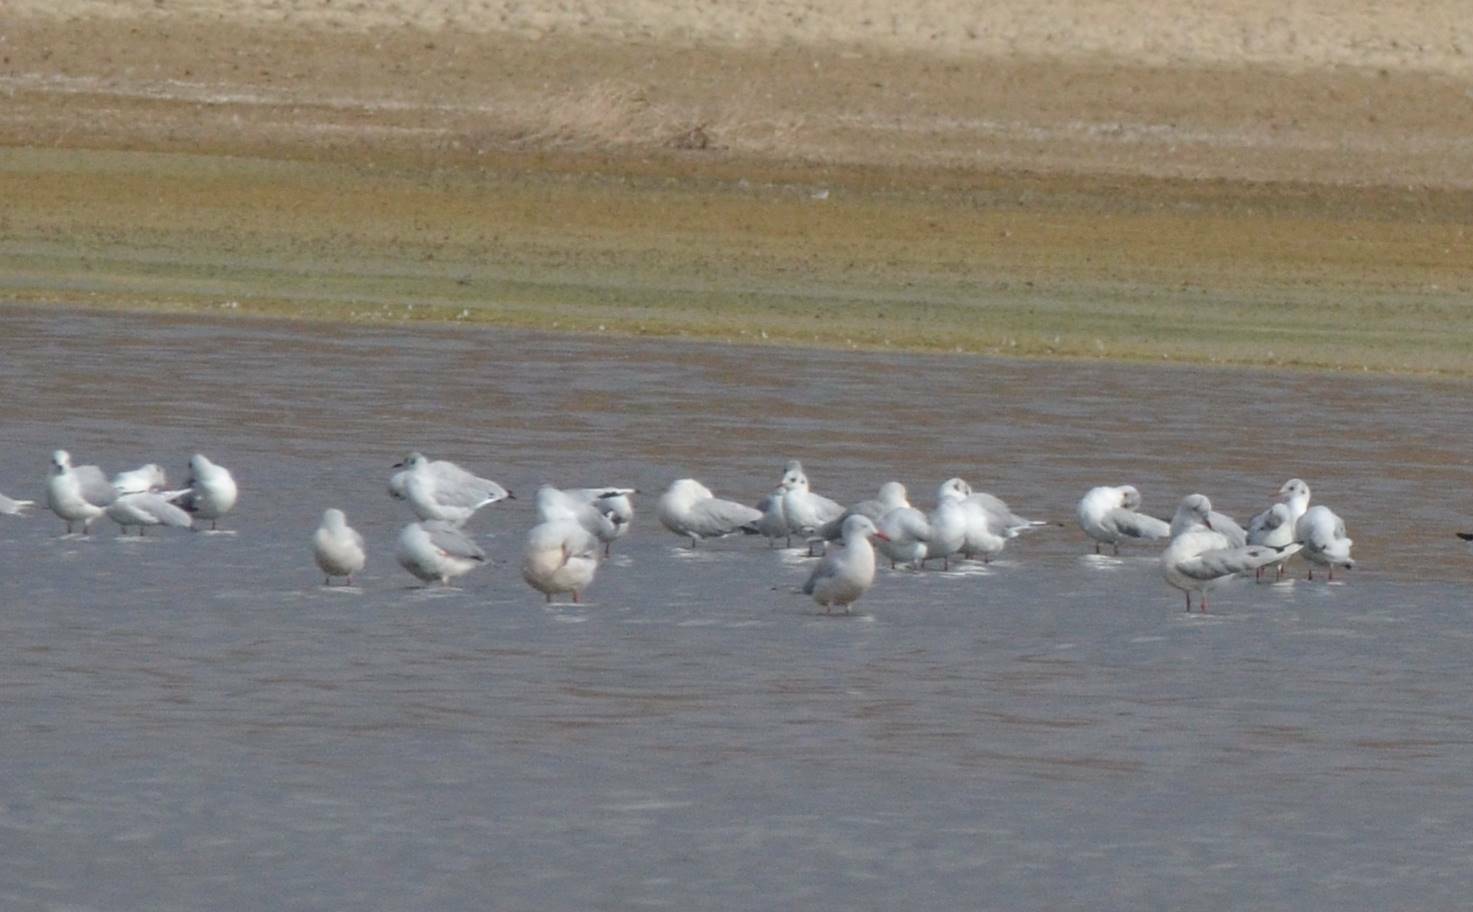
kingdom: Animalia
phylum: Chordata
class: Aves
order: Charadriiformes
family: Laridae
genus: Chroicocephalus
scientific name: Chroicocephalus ridibundus
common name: Black-headed gull
